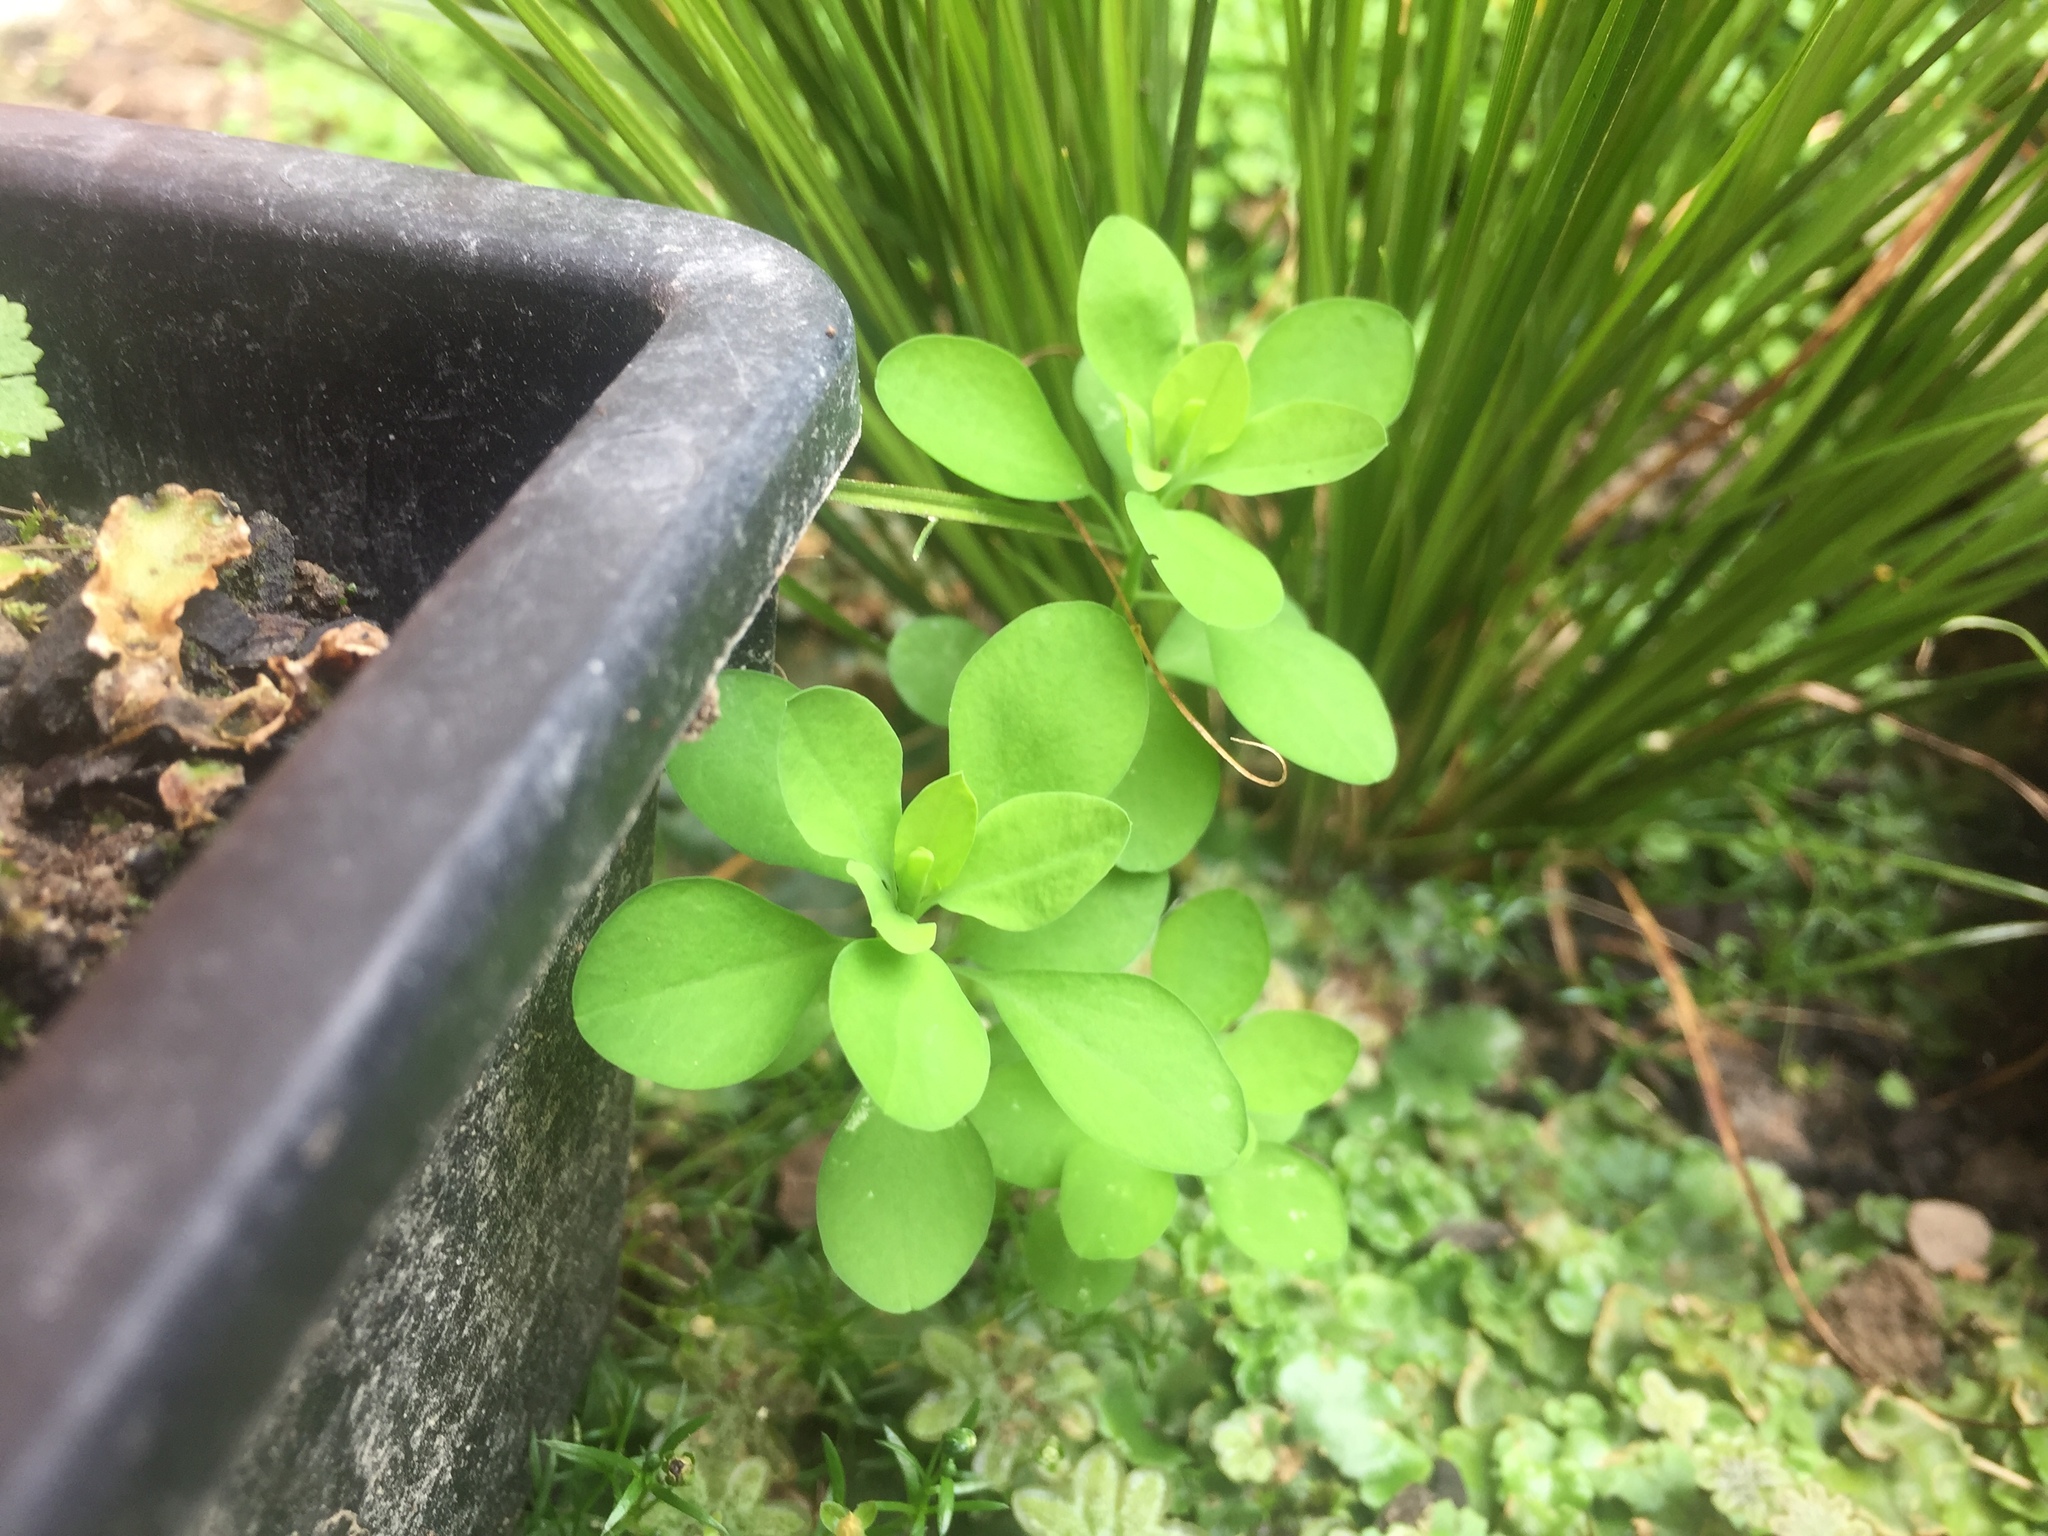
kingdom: Plantae
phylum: Tracheophyta
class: Magnoliopsida
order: Malpighiales
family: Euphorbiaceae
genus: Euphorbia
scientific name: Euphorbia peplus
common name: Petty spurge
